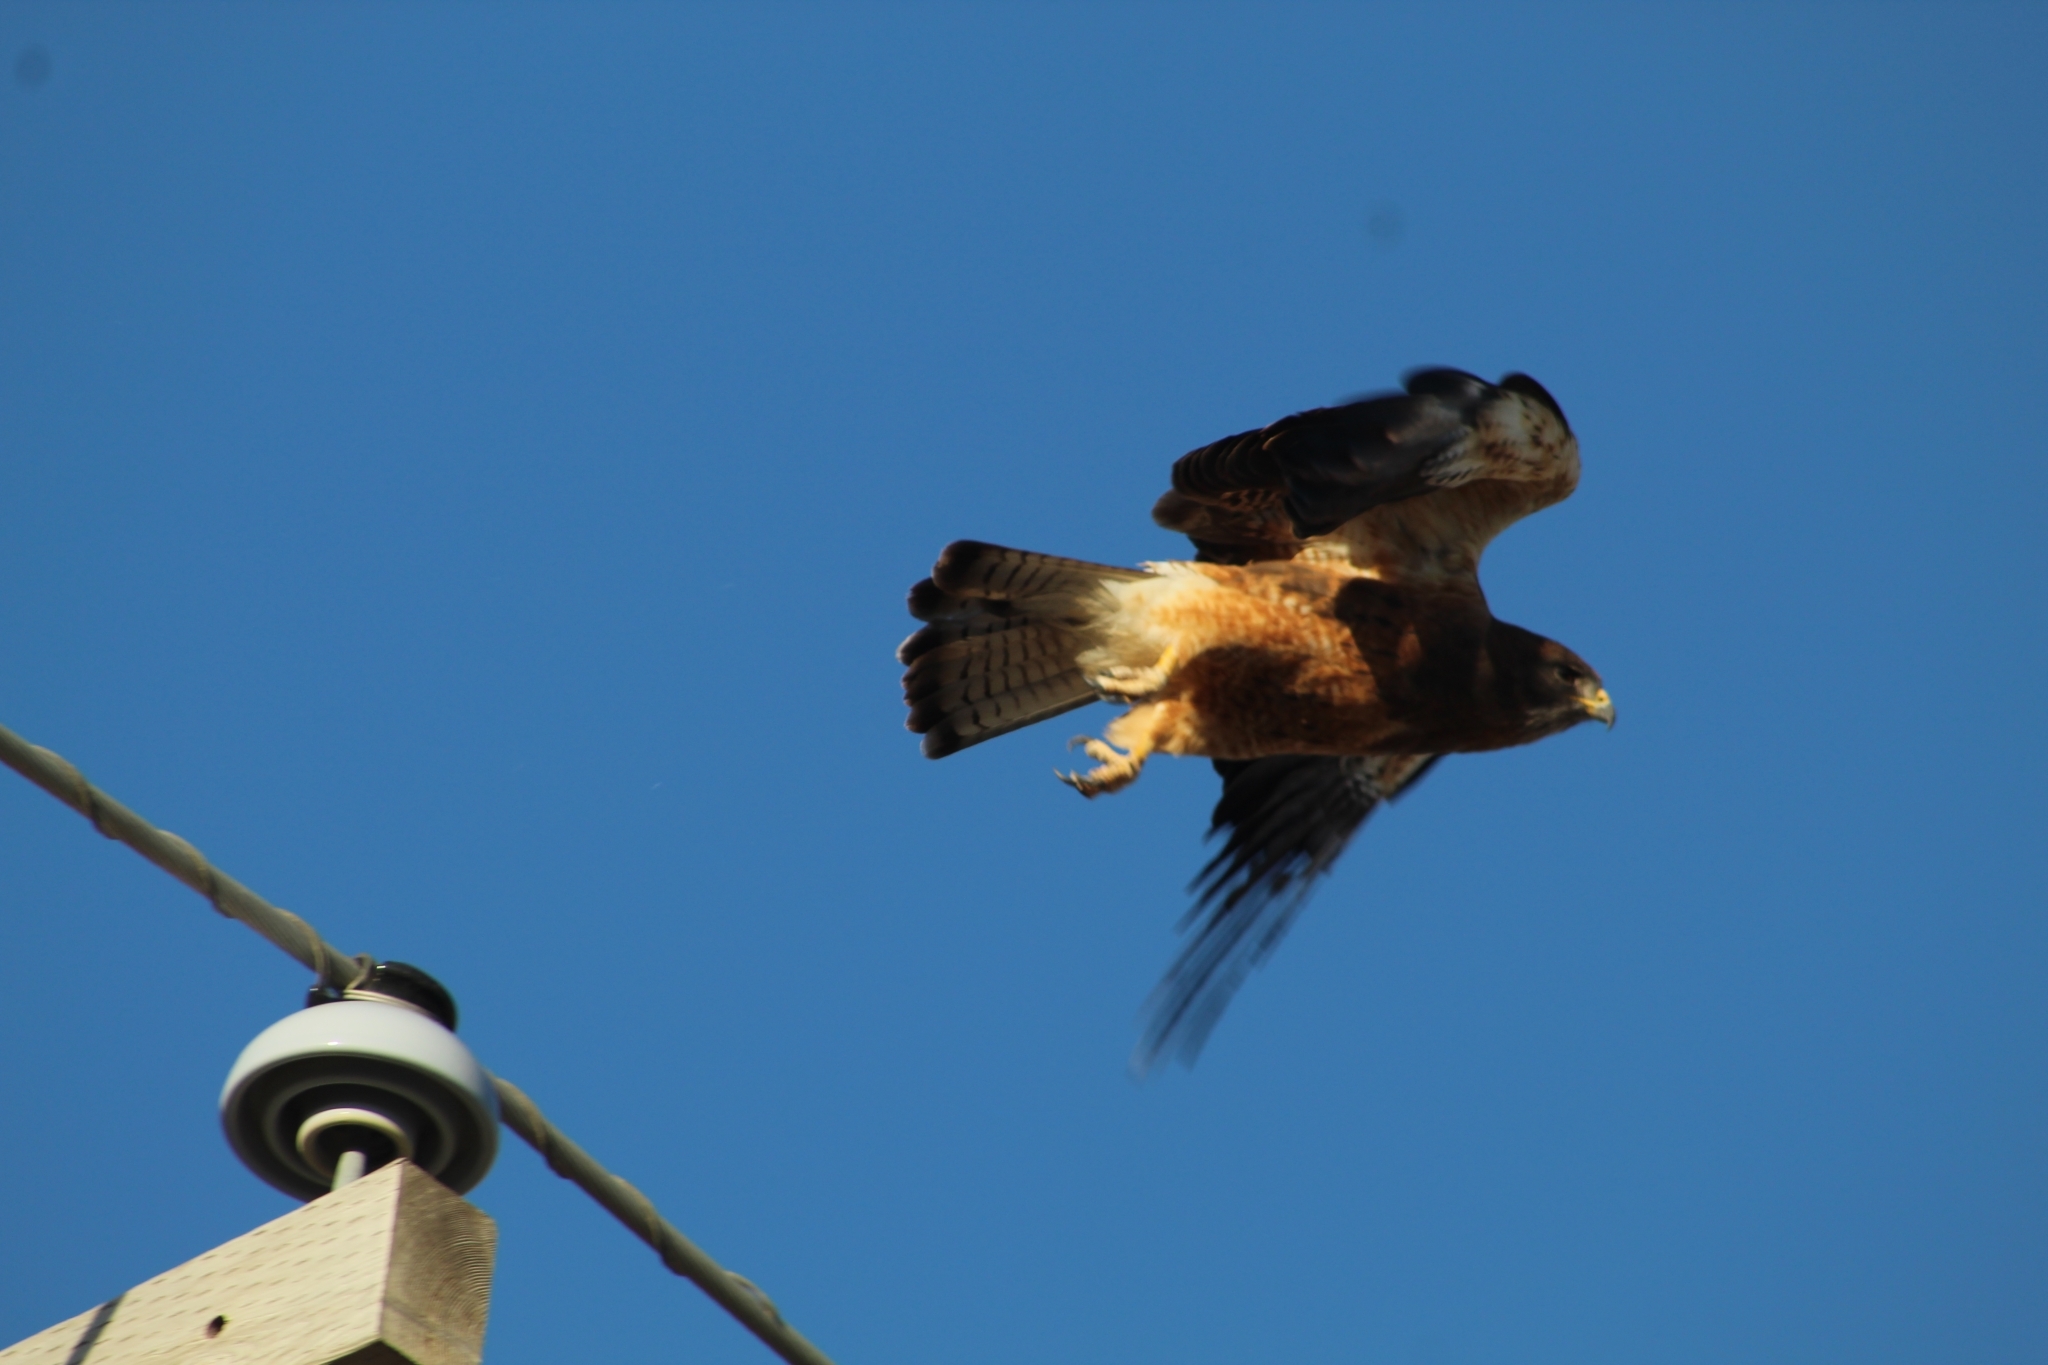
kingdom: Animalia
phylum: Chordata
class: Aves
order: Accipitriformes
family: Accipitridae
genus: Buteo
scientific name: Buteo swainsoni
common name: Swainson's hawk
